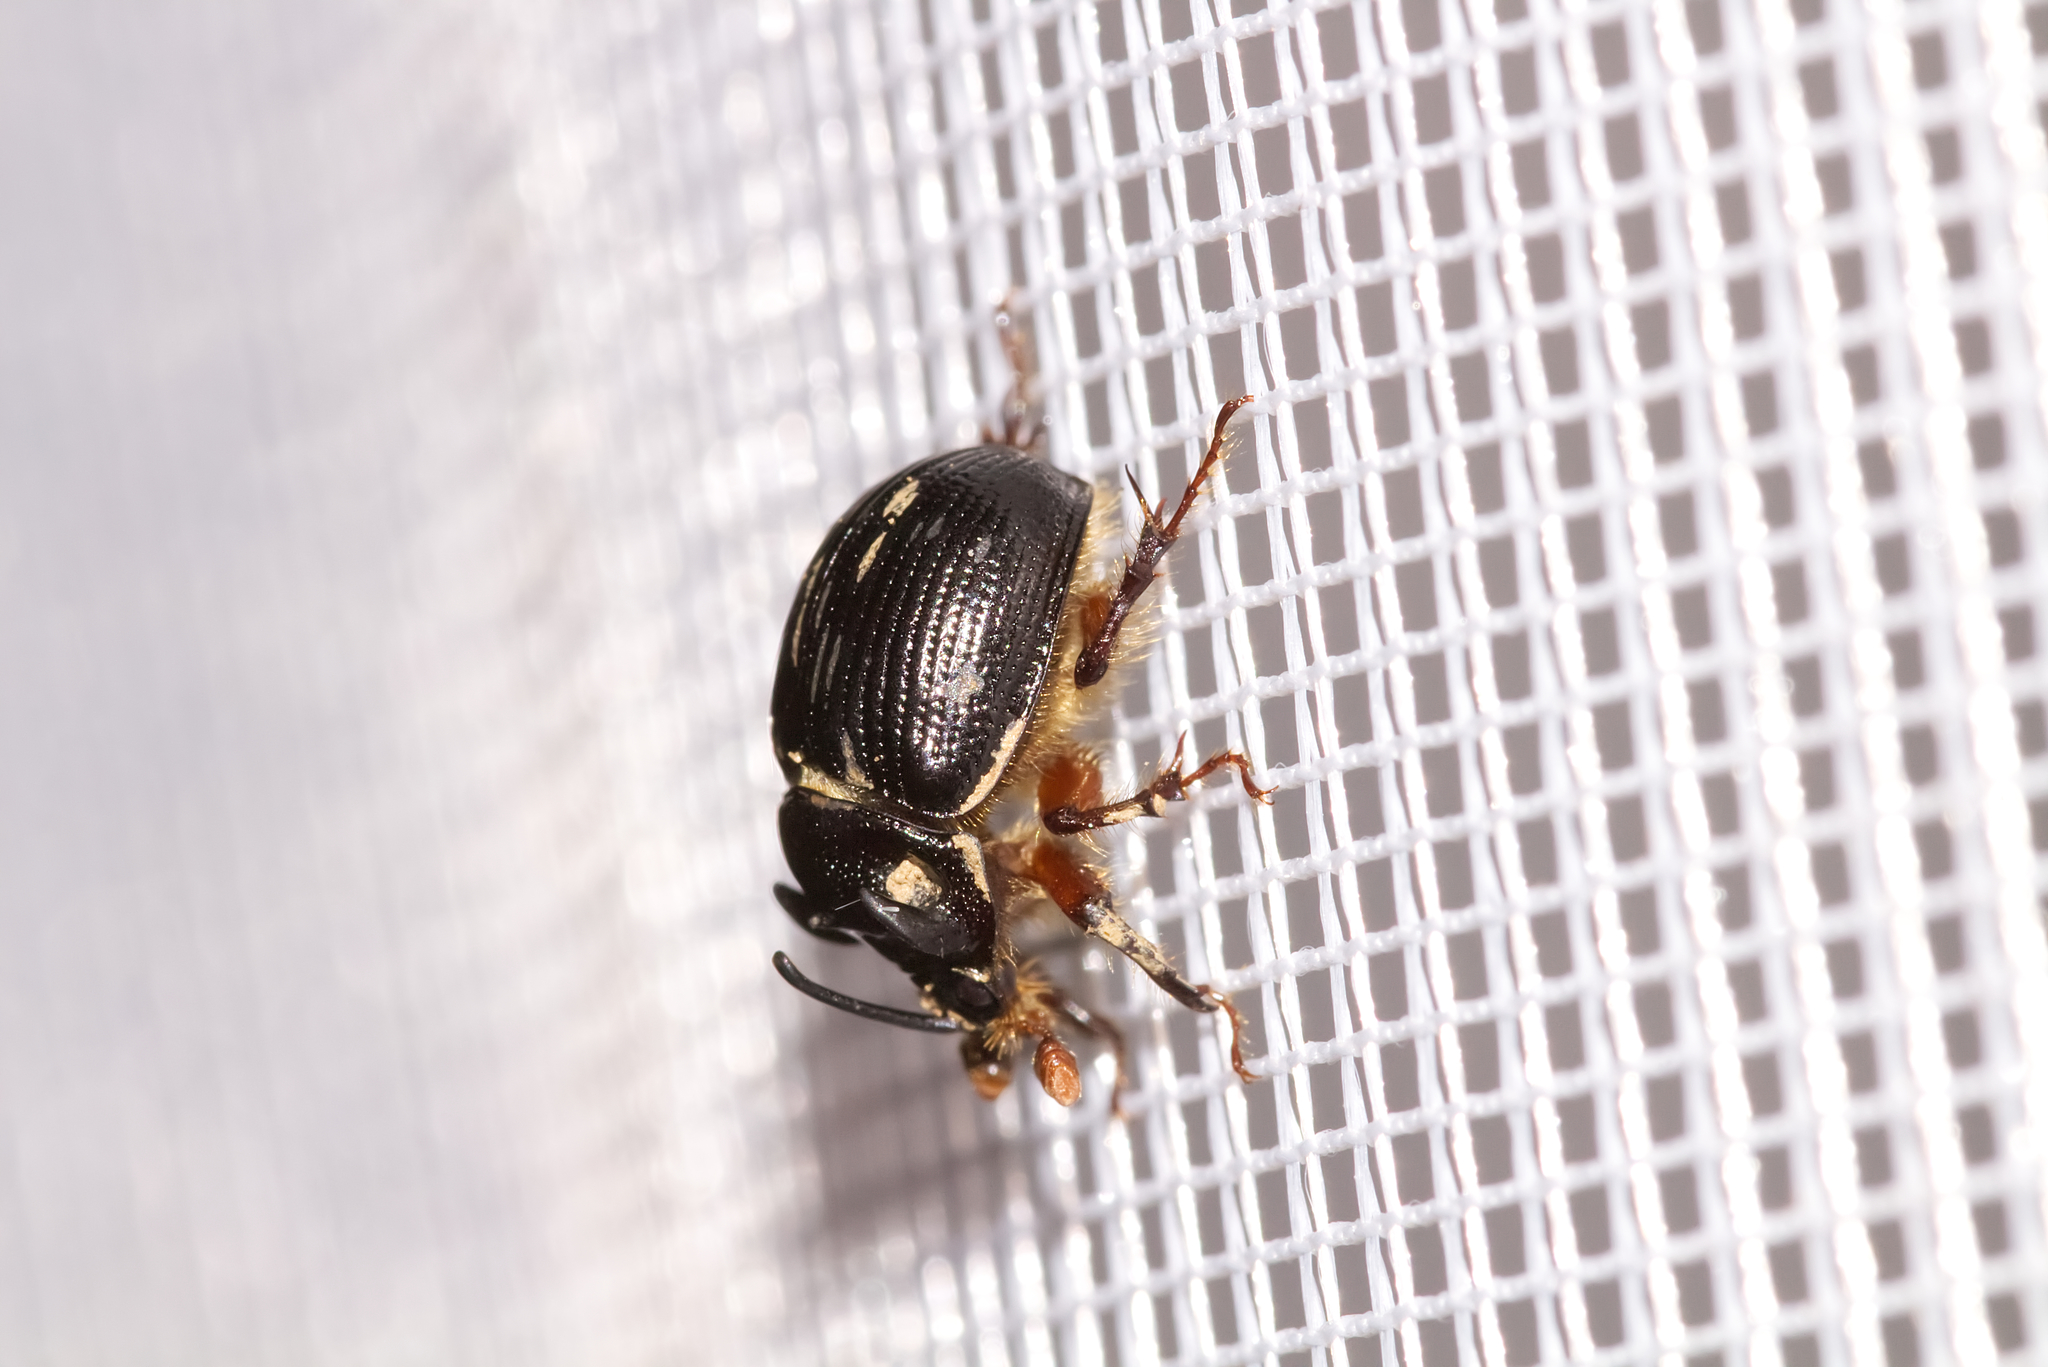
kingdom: Animalia
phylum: Arthropoda
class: Insecta
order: Coleoptera
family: Geotrupidae
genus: Odonteus
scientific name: Odonteus armiger
